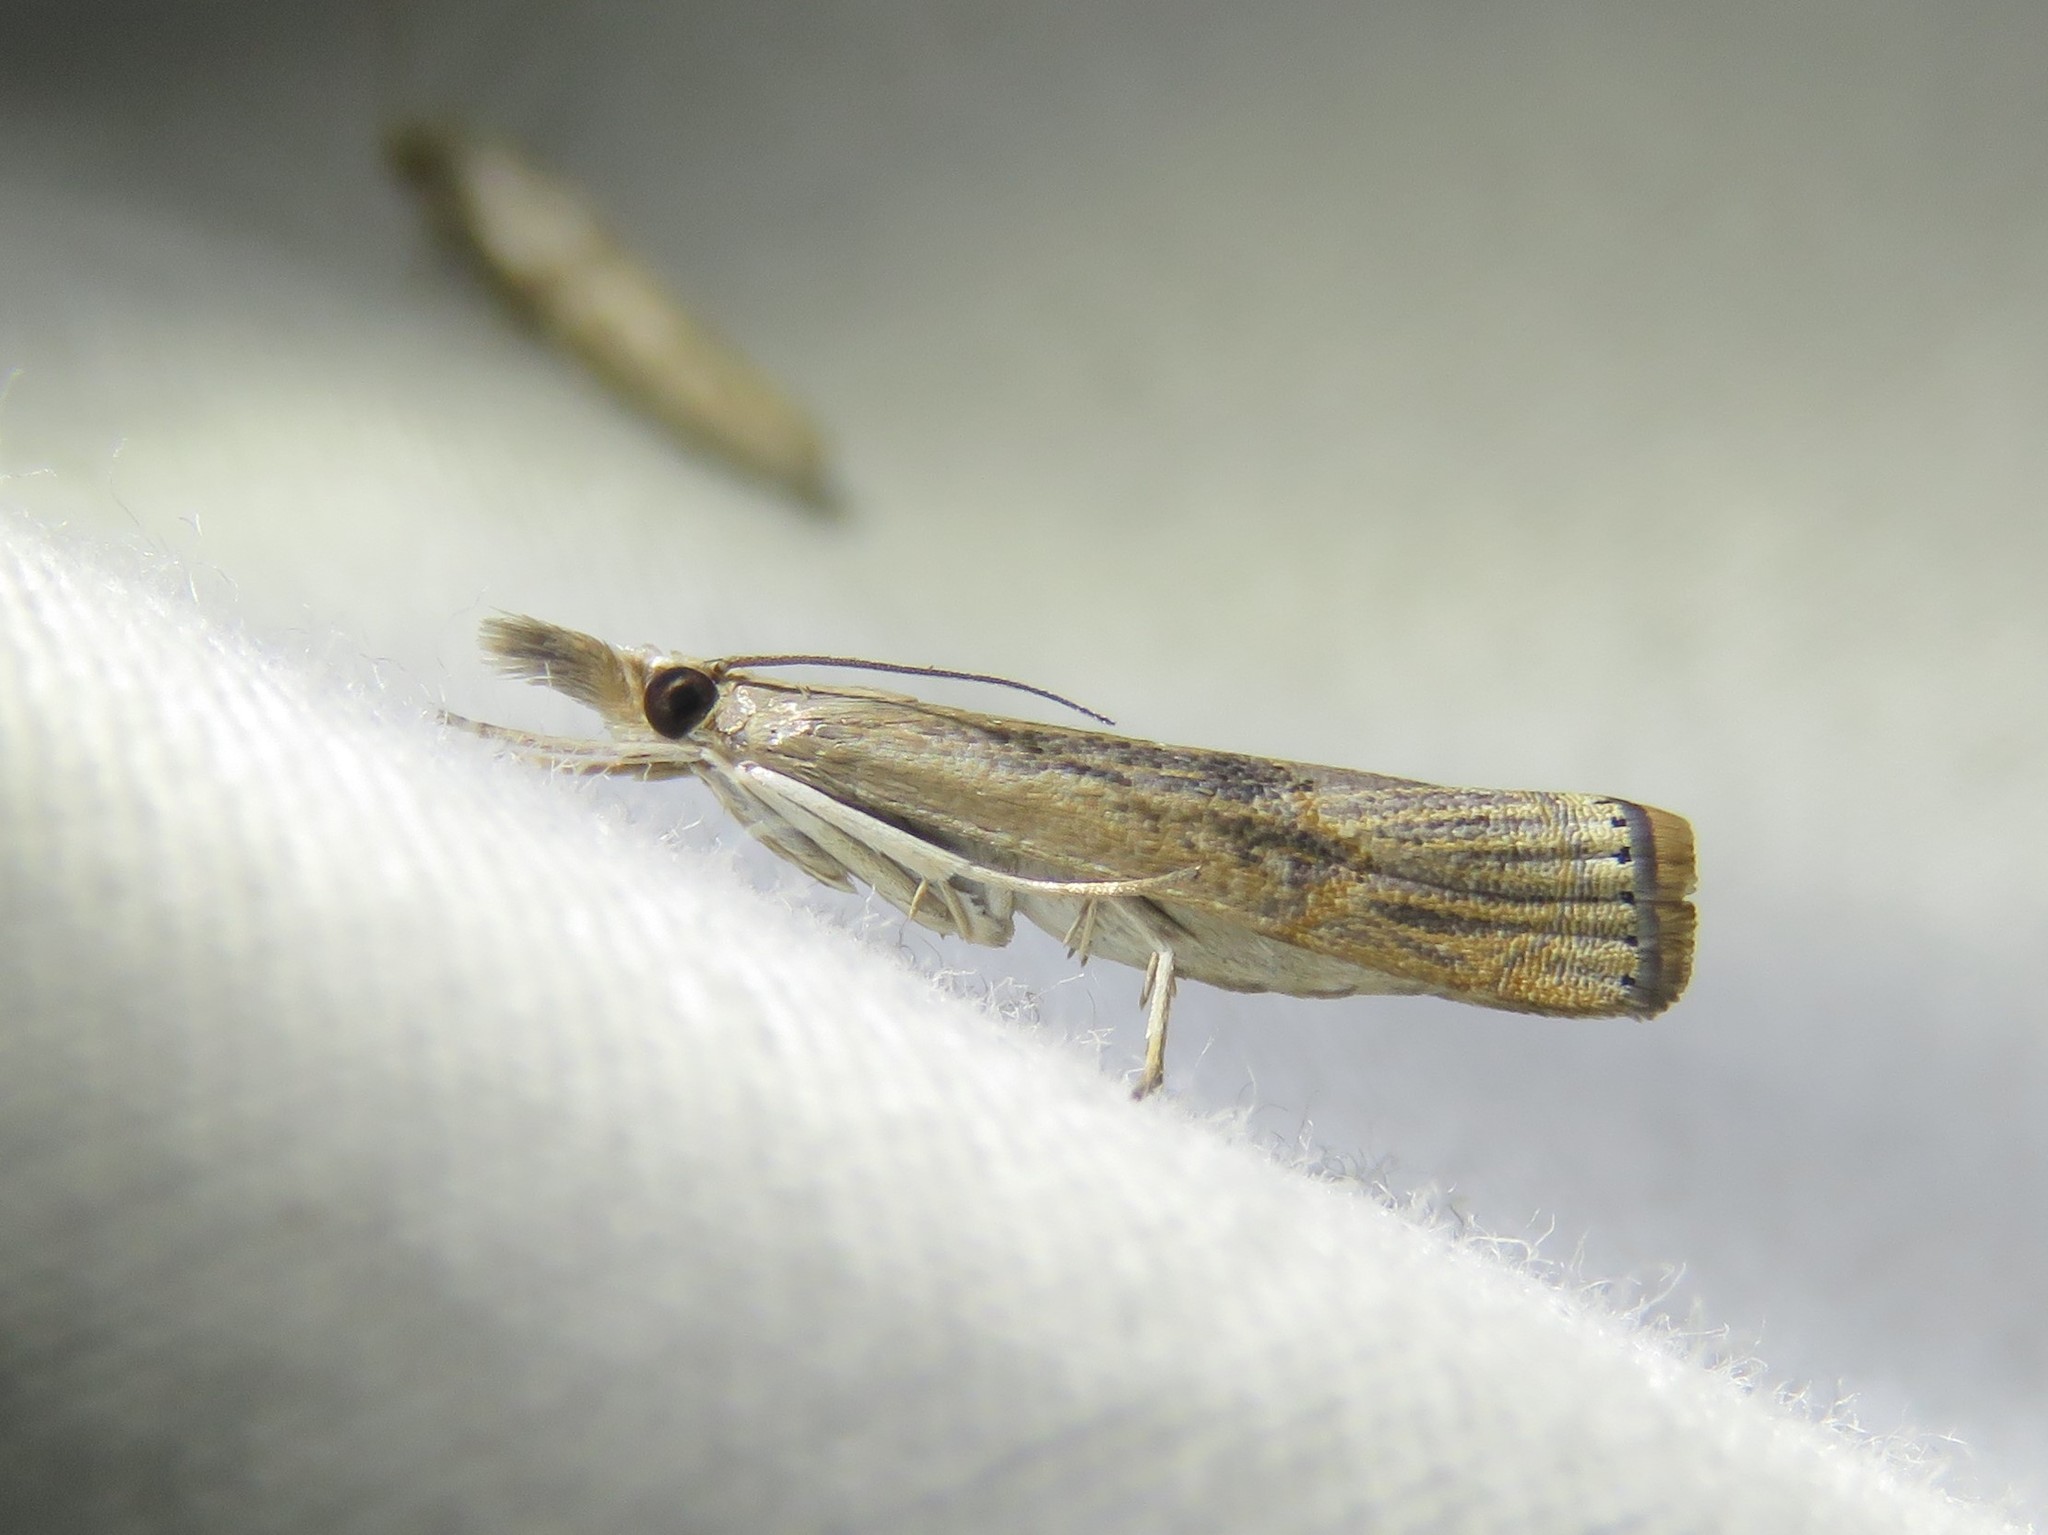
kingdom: Animalia
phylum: Arthropoda
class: Insecta
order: Lepidoptera
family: Crambidae
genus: Parapediasia
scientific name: Parapediasia teterellus
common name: Bluegrass webworm moth
